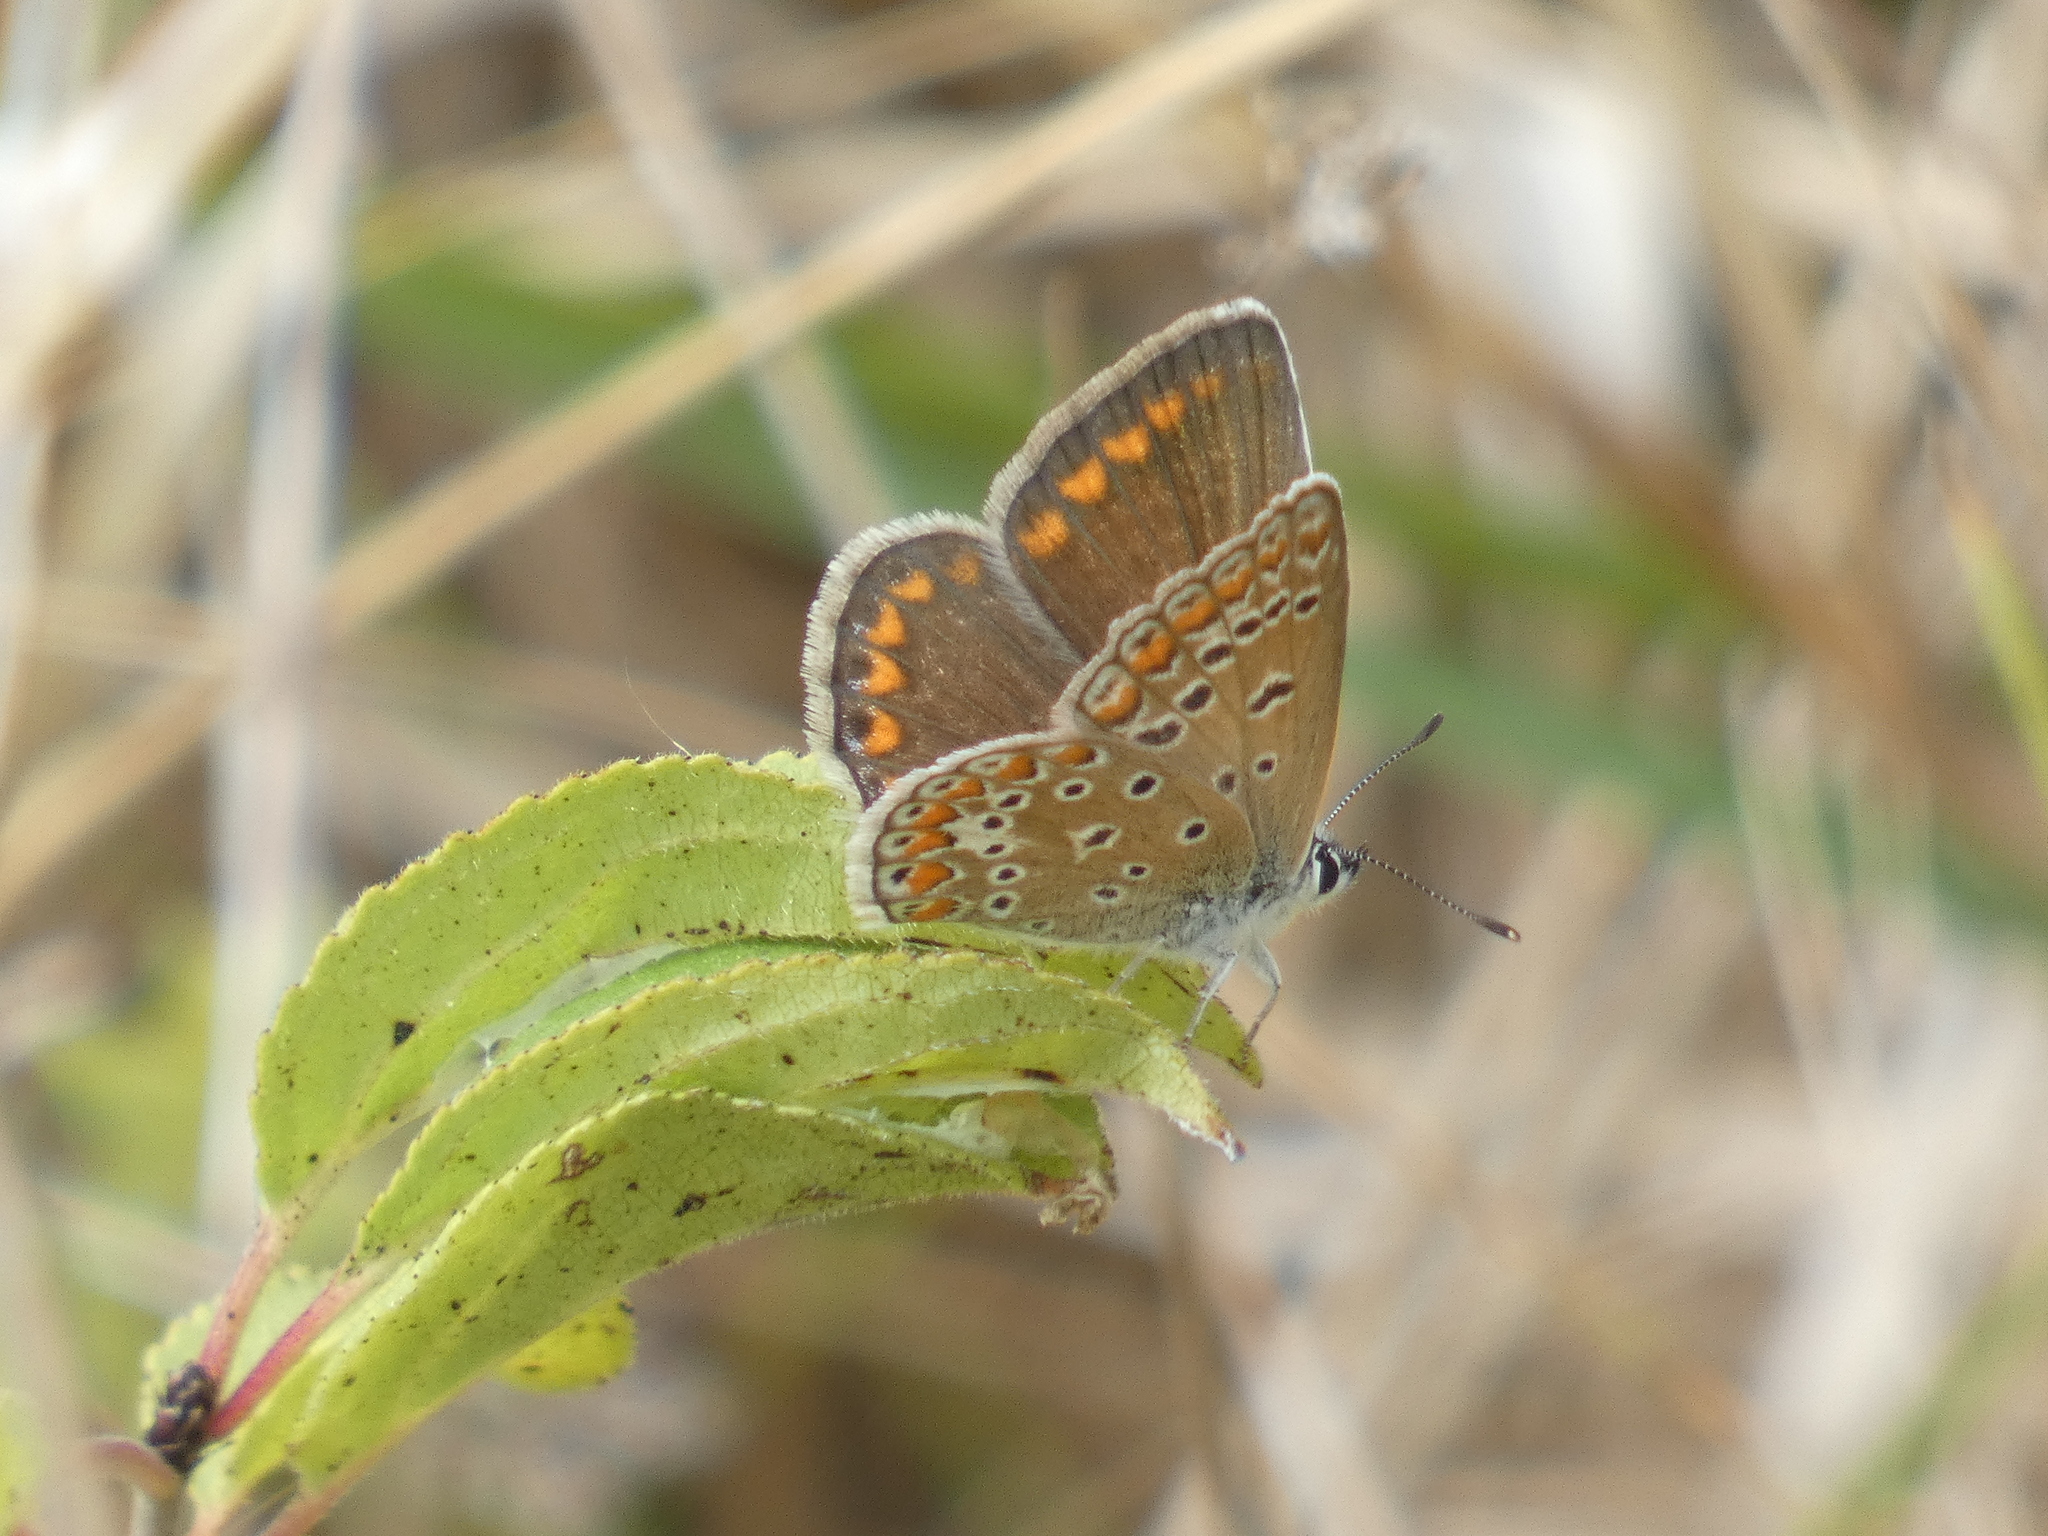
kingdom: Animalia
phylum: Arthropoda
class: Insecta
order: Lepidoptera
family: Lycaenidae
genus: Polyommatus
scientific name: Polyommatus icarus
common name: Common blue
